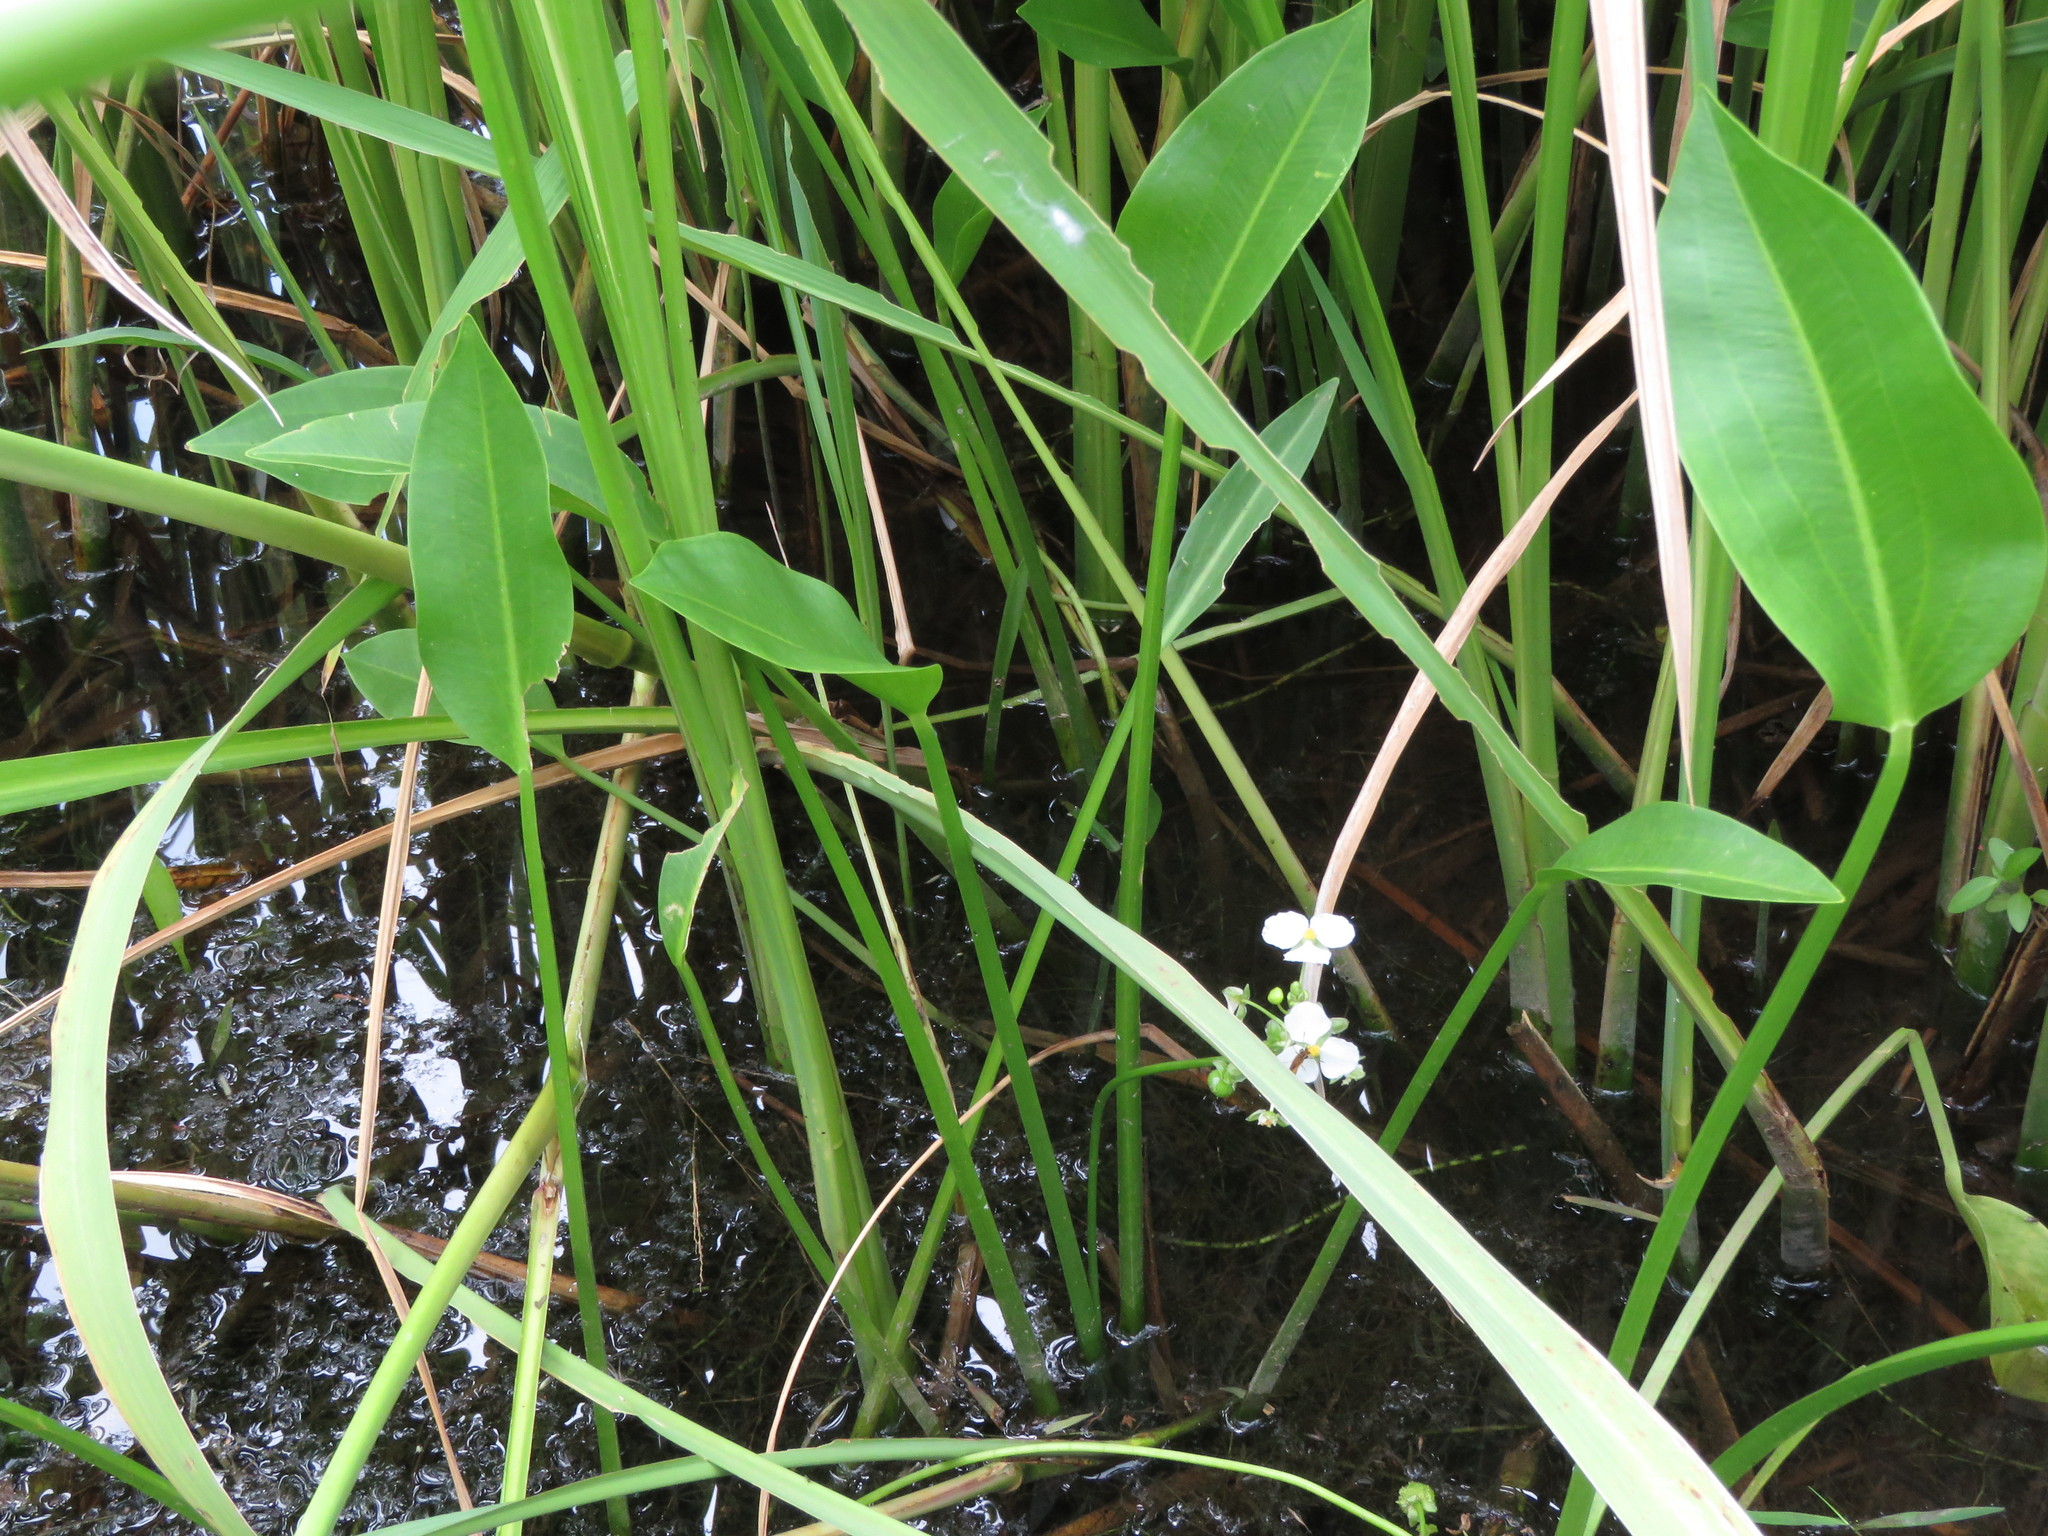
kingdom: Plantae
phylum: Tracheophyta
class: Liliopsida
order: Alismatales
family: Alismataceae
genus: Sagittaria
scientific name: Sagittaria platyphylla
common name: Broad-leaf arrowhead
